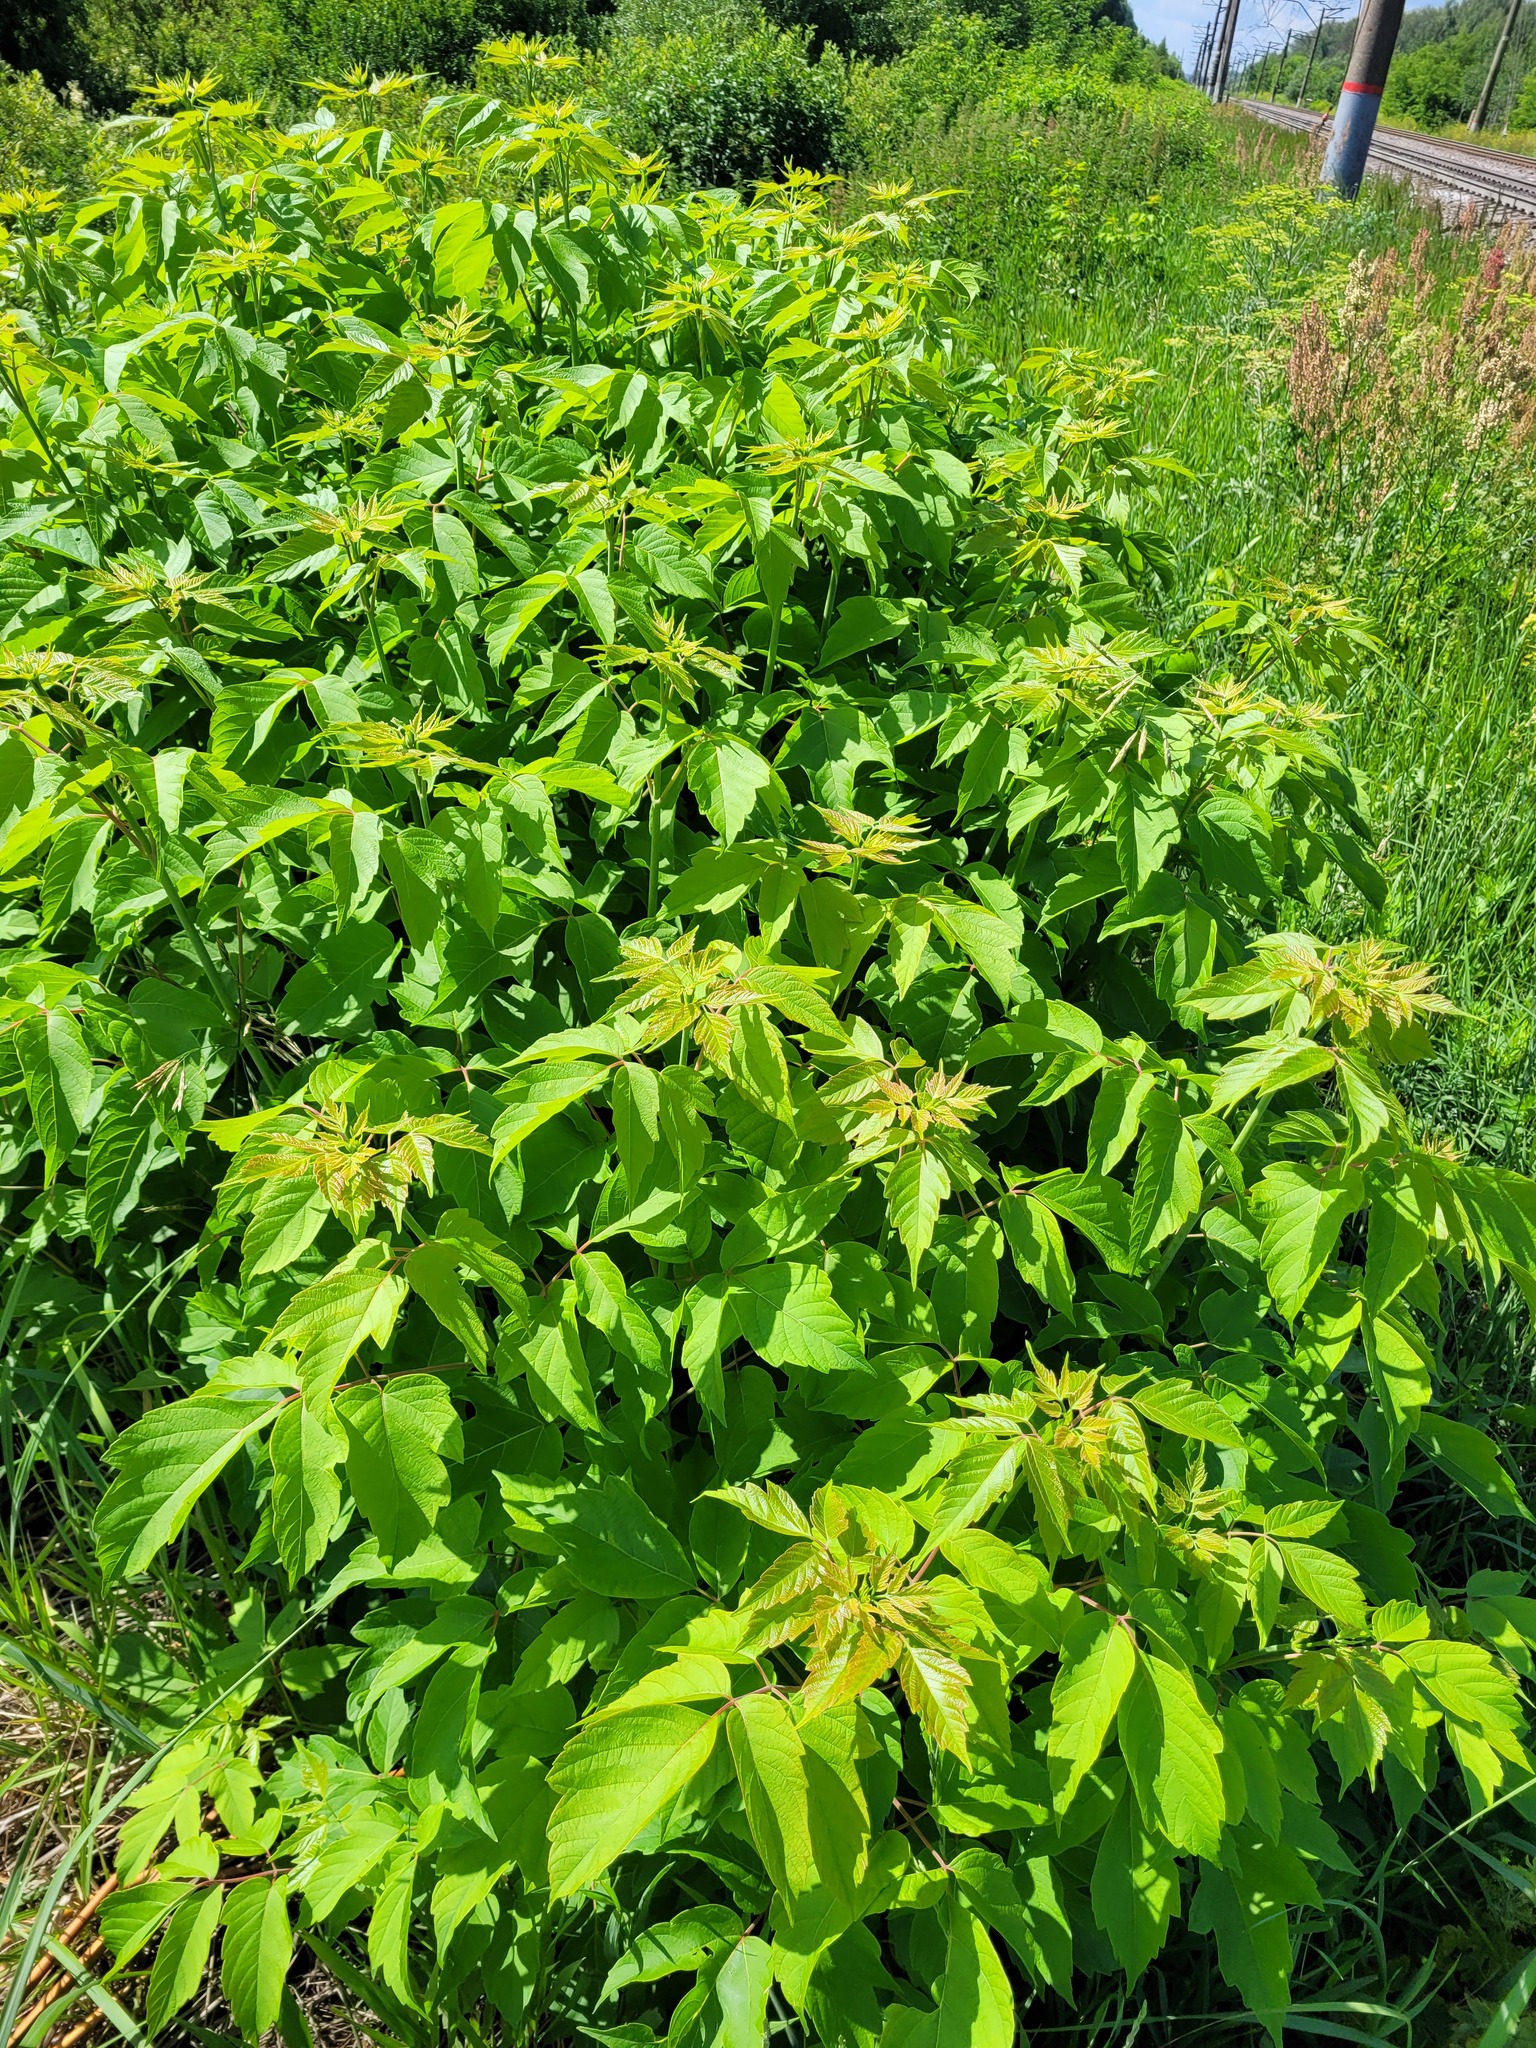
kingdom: Plantae
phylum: Tracheophyta
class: Magnoliopsida
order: Sapindales
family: Sapindaceae
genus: Acer
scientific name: Acer negundo
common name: Ashleaf maple
